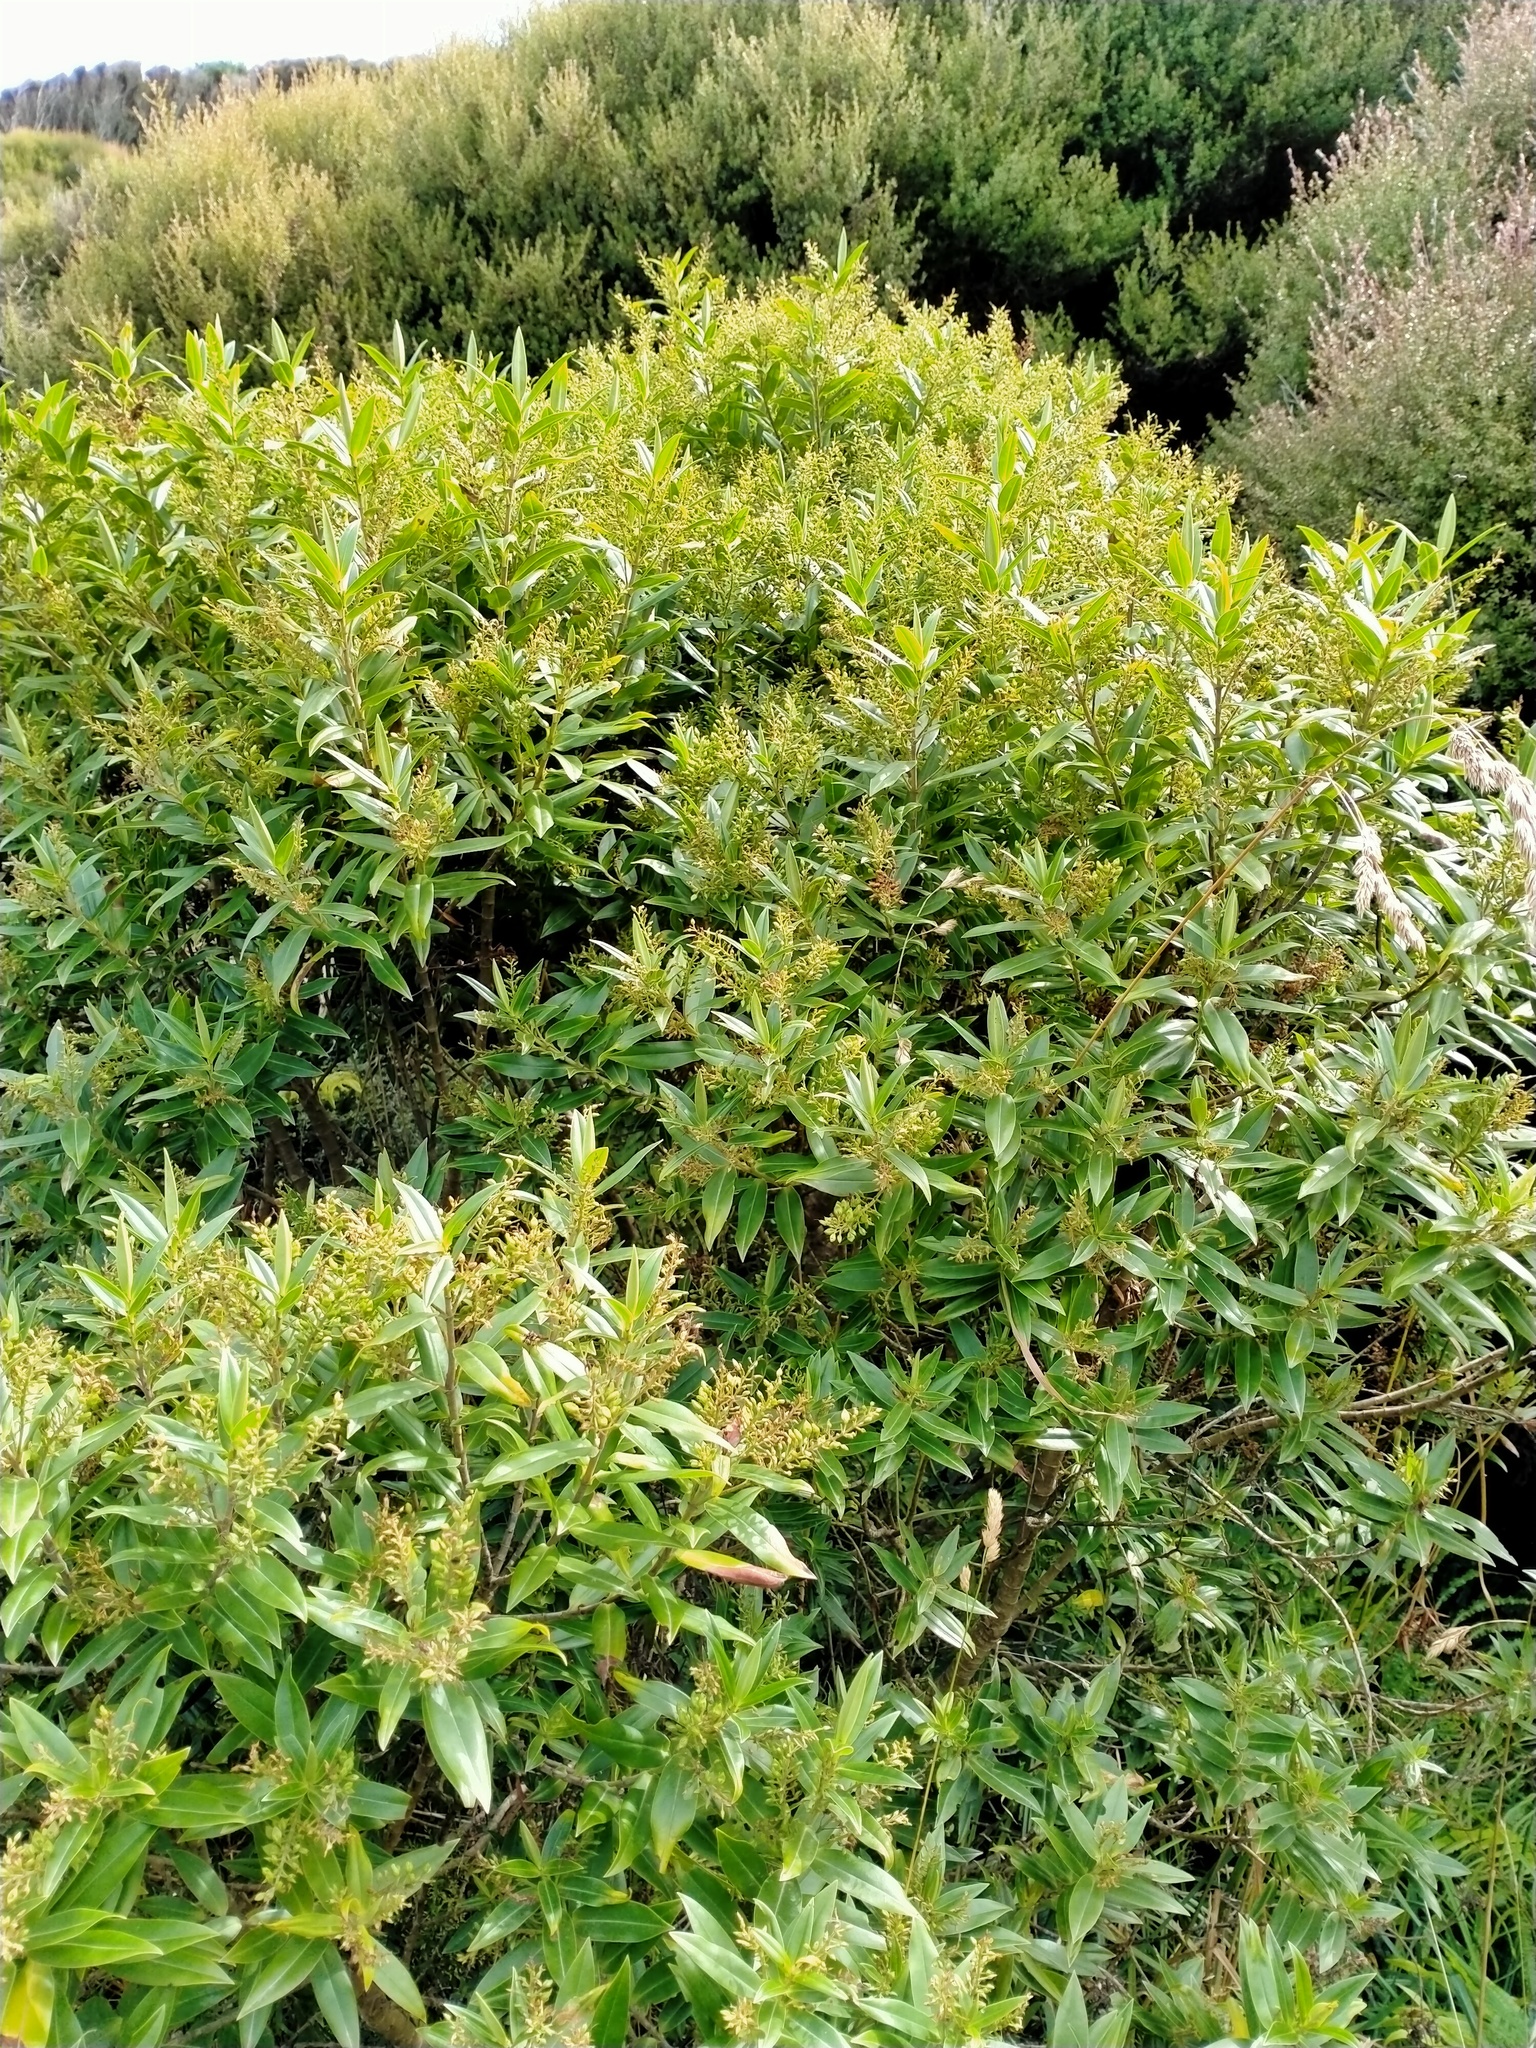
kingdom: Plantae
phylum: Tracheophyta
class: Magnoliopsida
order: Lamiales
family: Plantaginaceae
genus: Veronica
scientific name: Veronica lewisii
